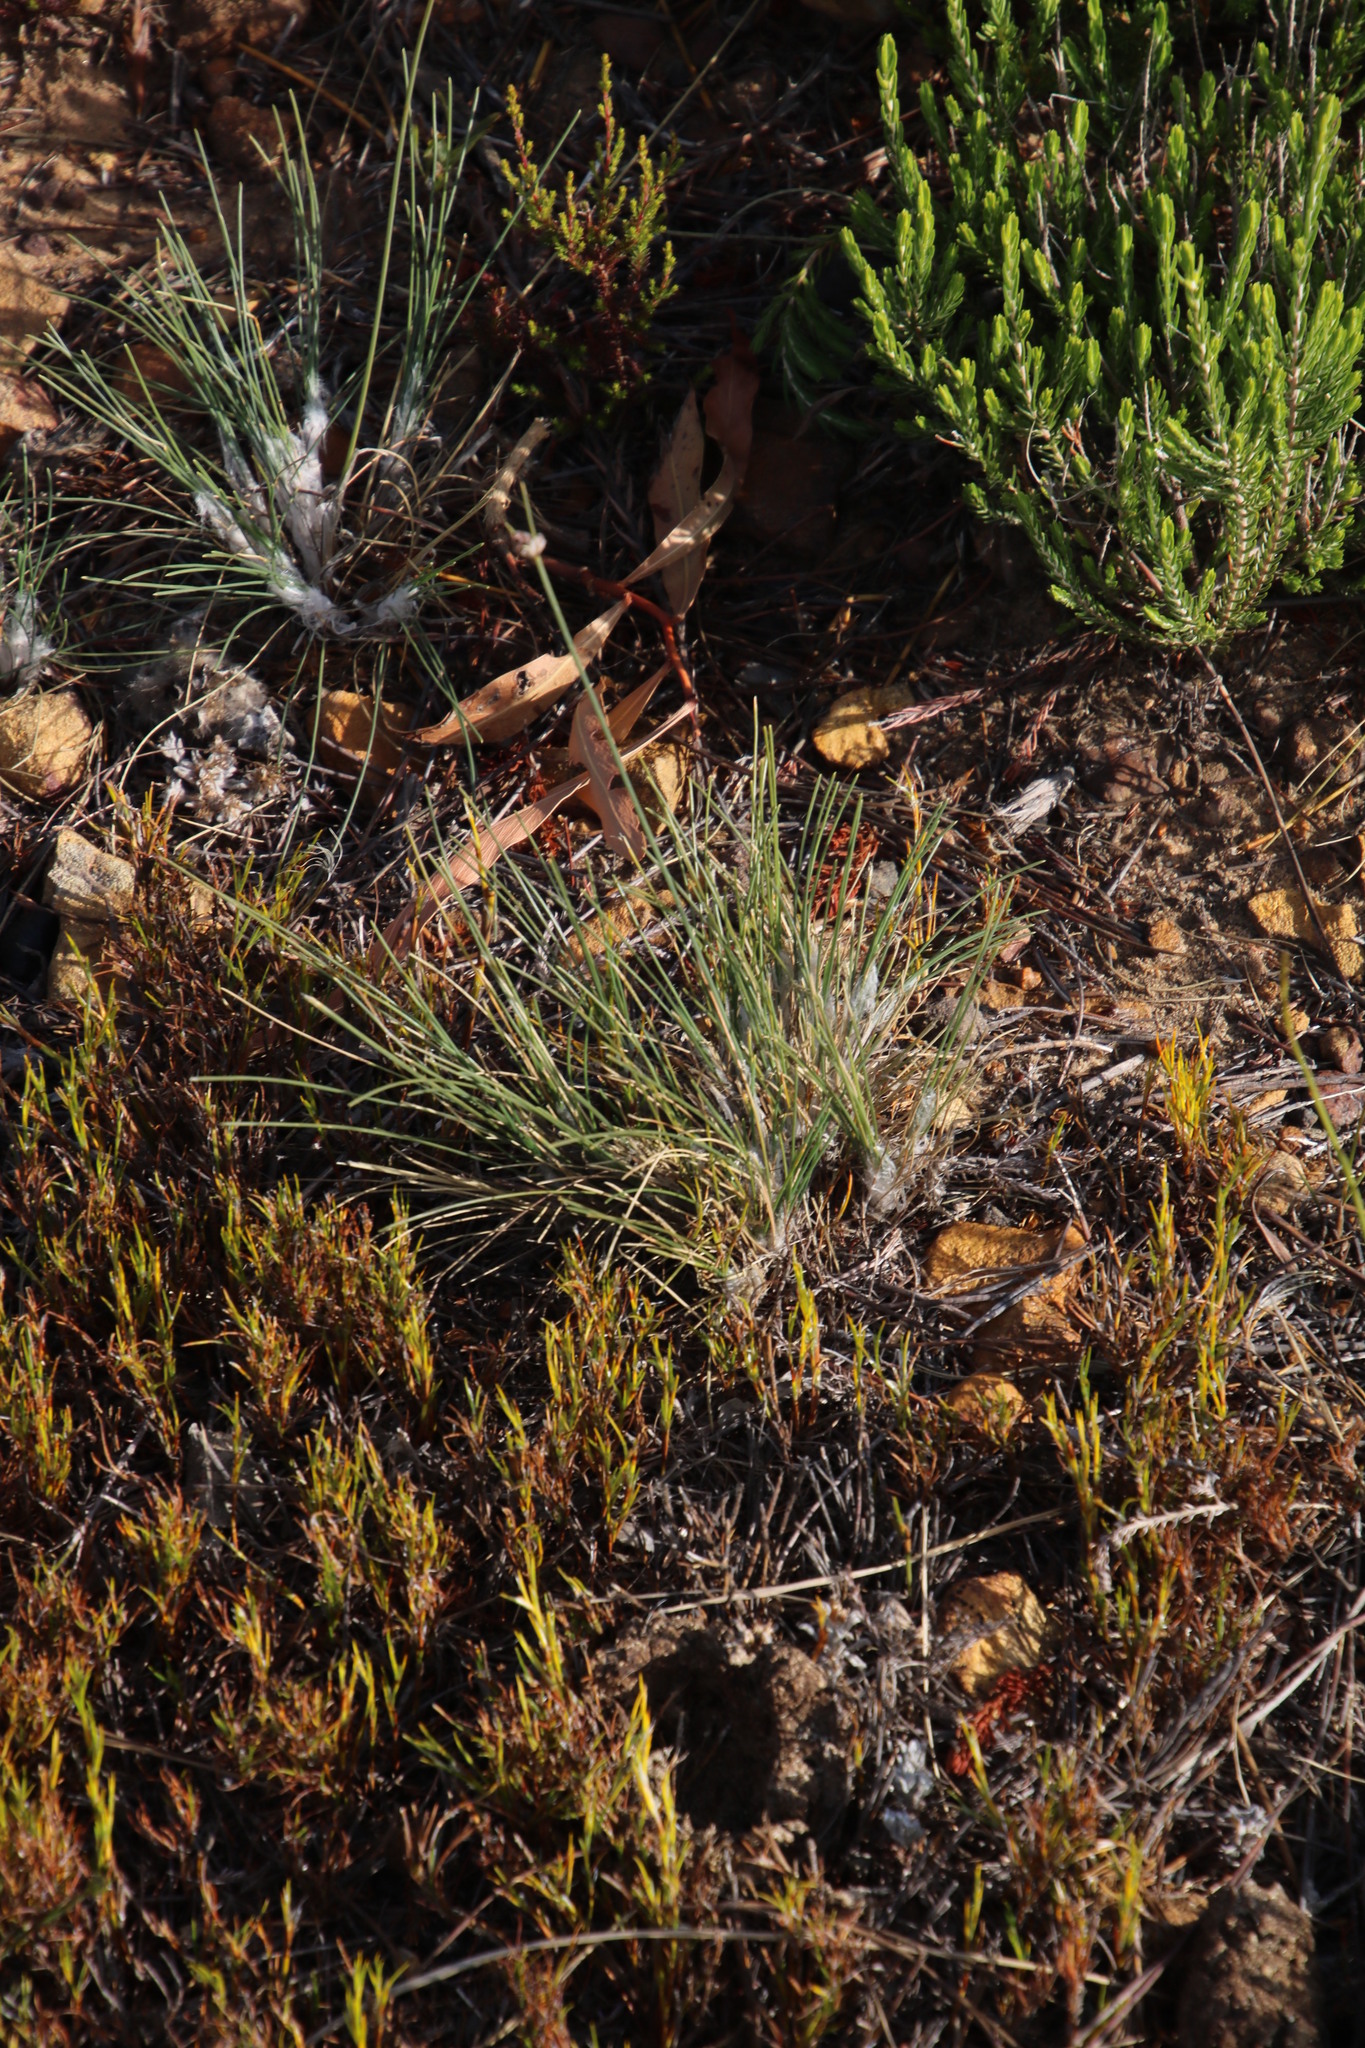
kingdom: Plantae
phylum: Tracheophyta
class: Liliopsida
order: Poales
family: Cyperaceae
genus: Ficinia
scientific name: Ficinia paradoxa
